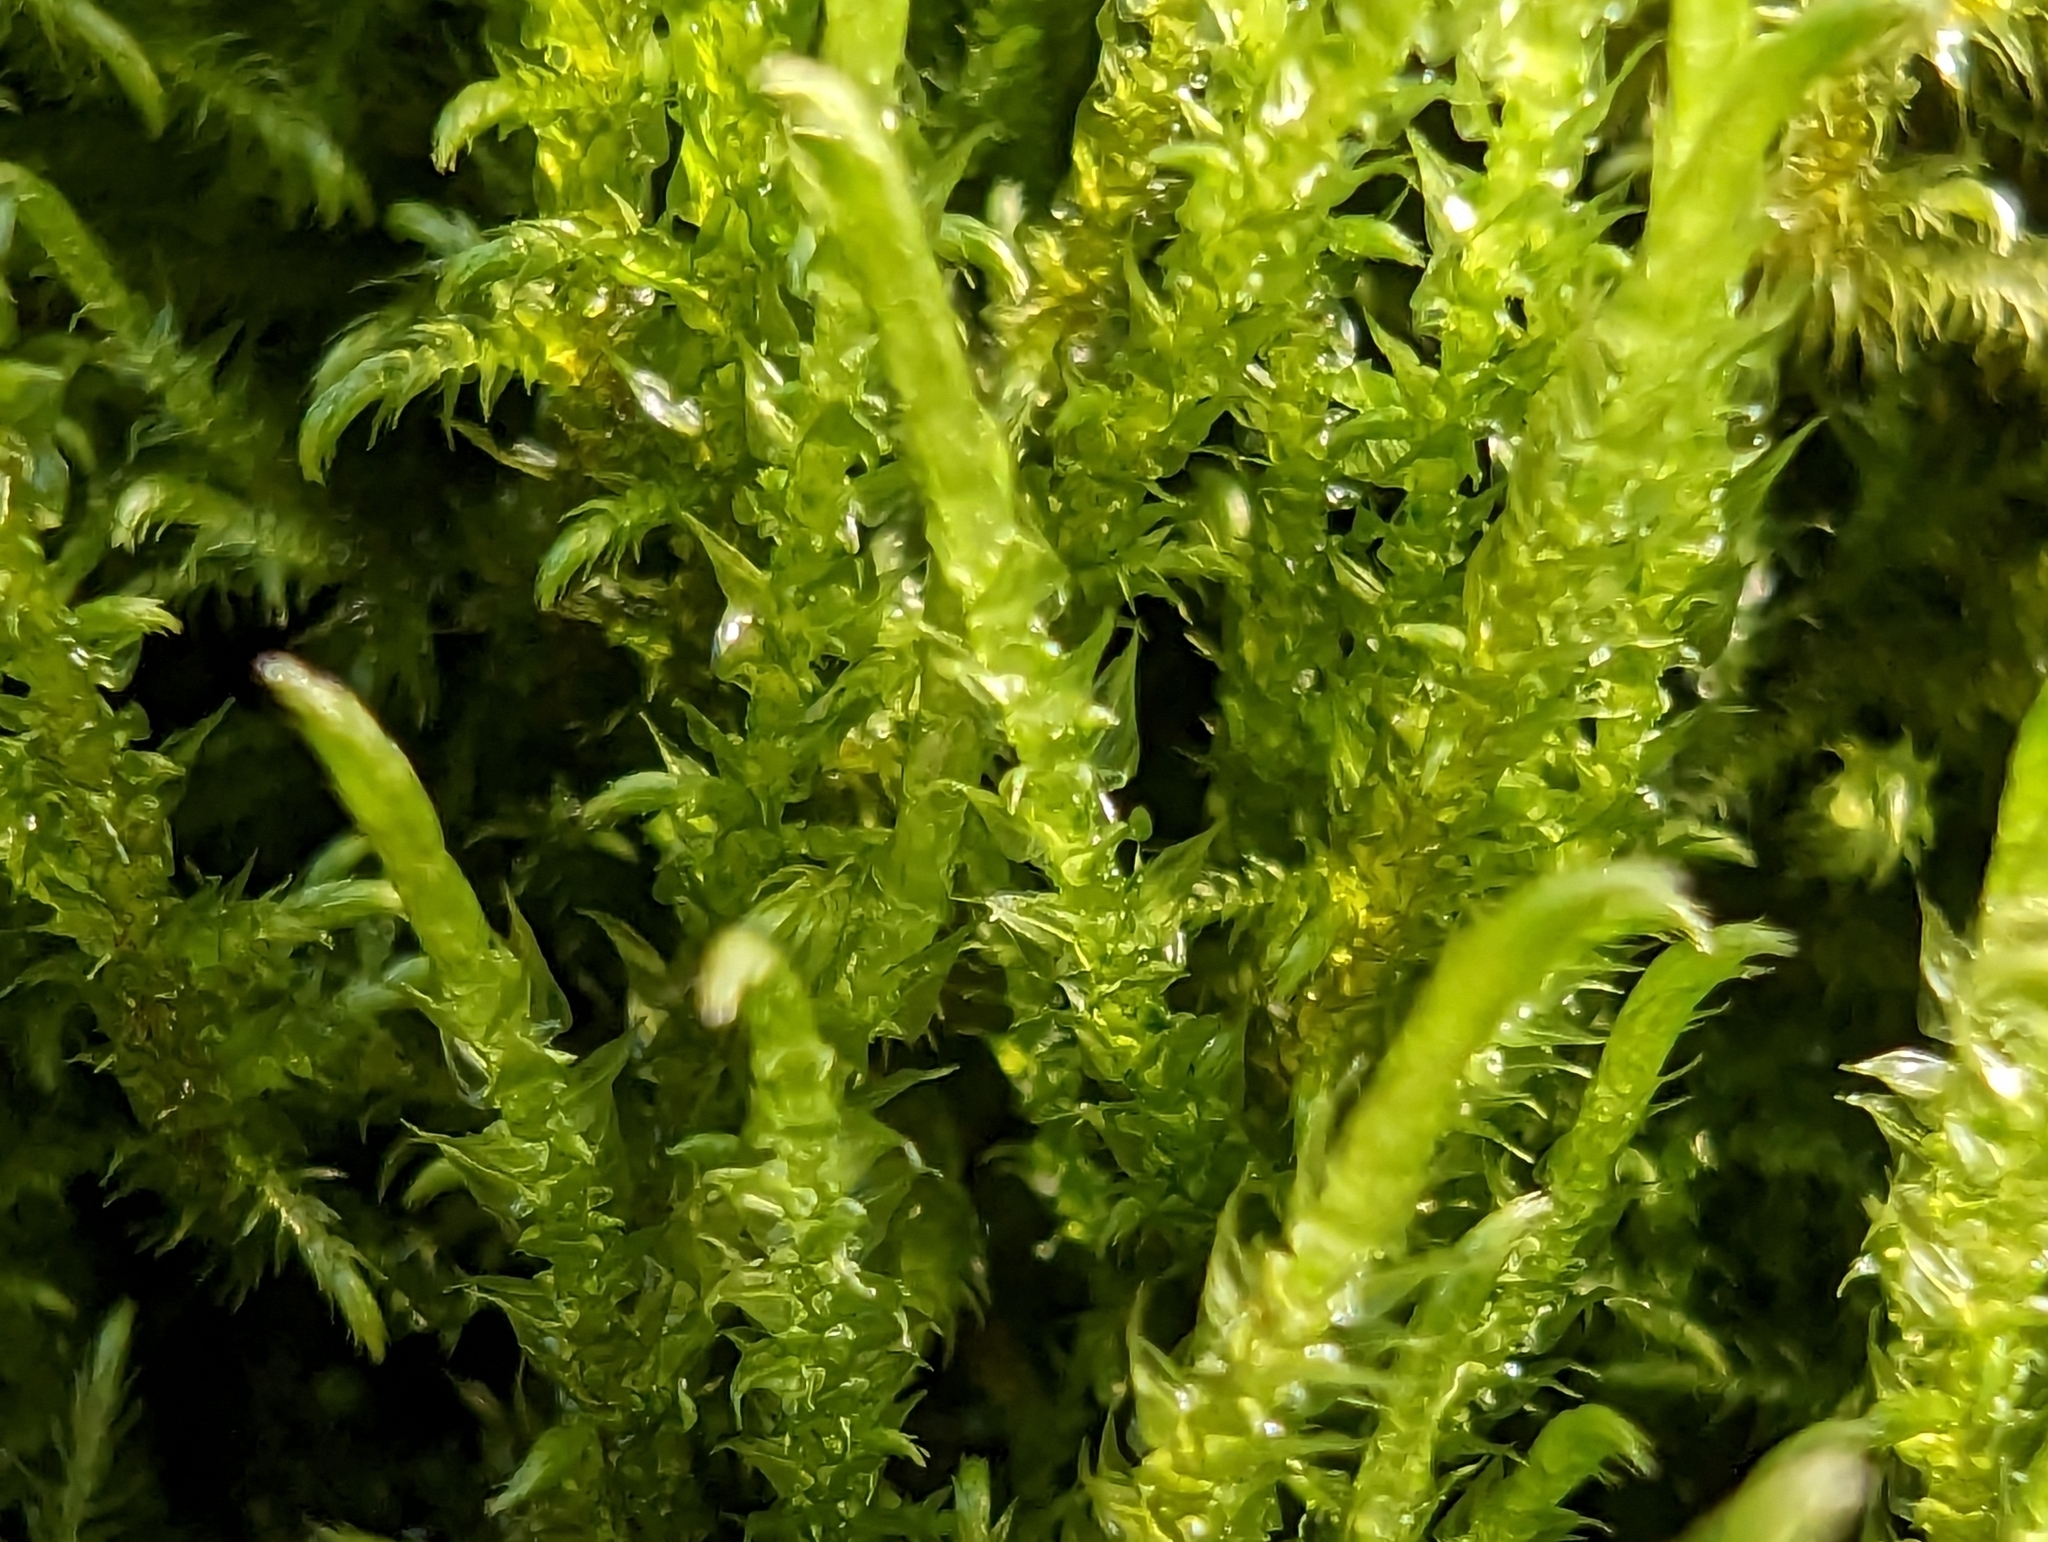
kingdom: Plantae
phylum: Bryophyta
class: Bryopsida
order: Hypnales
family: Amblystegiaceae
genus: Cratoneuron
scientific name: Cratoneuron filicinum
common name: Fern-leaved hook moss
